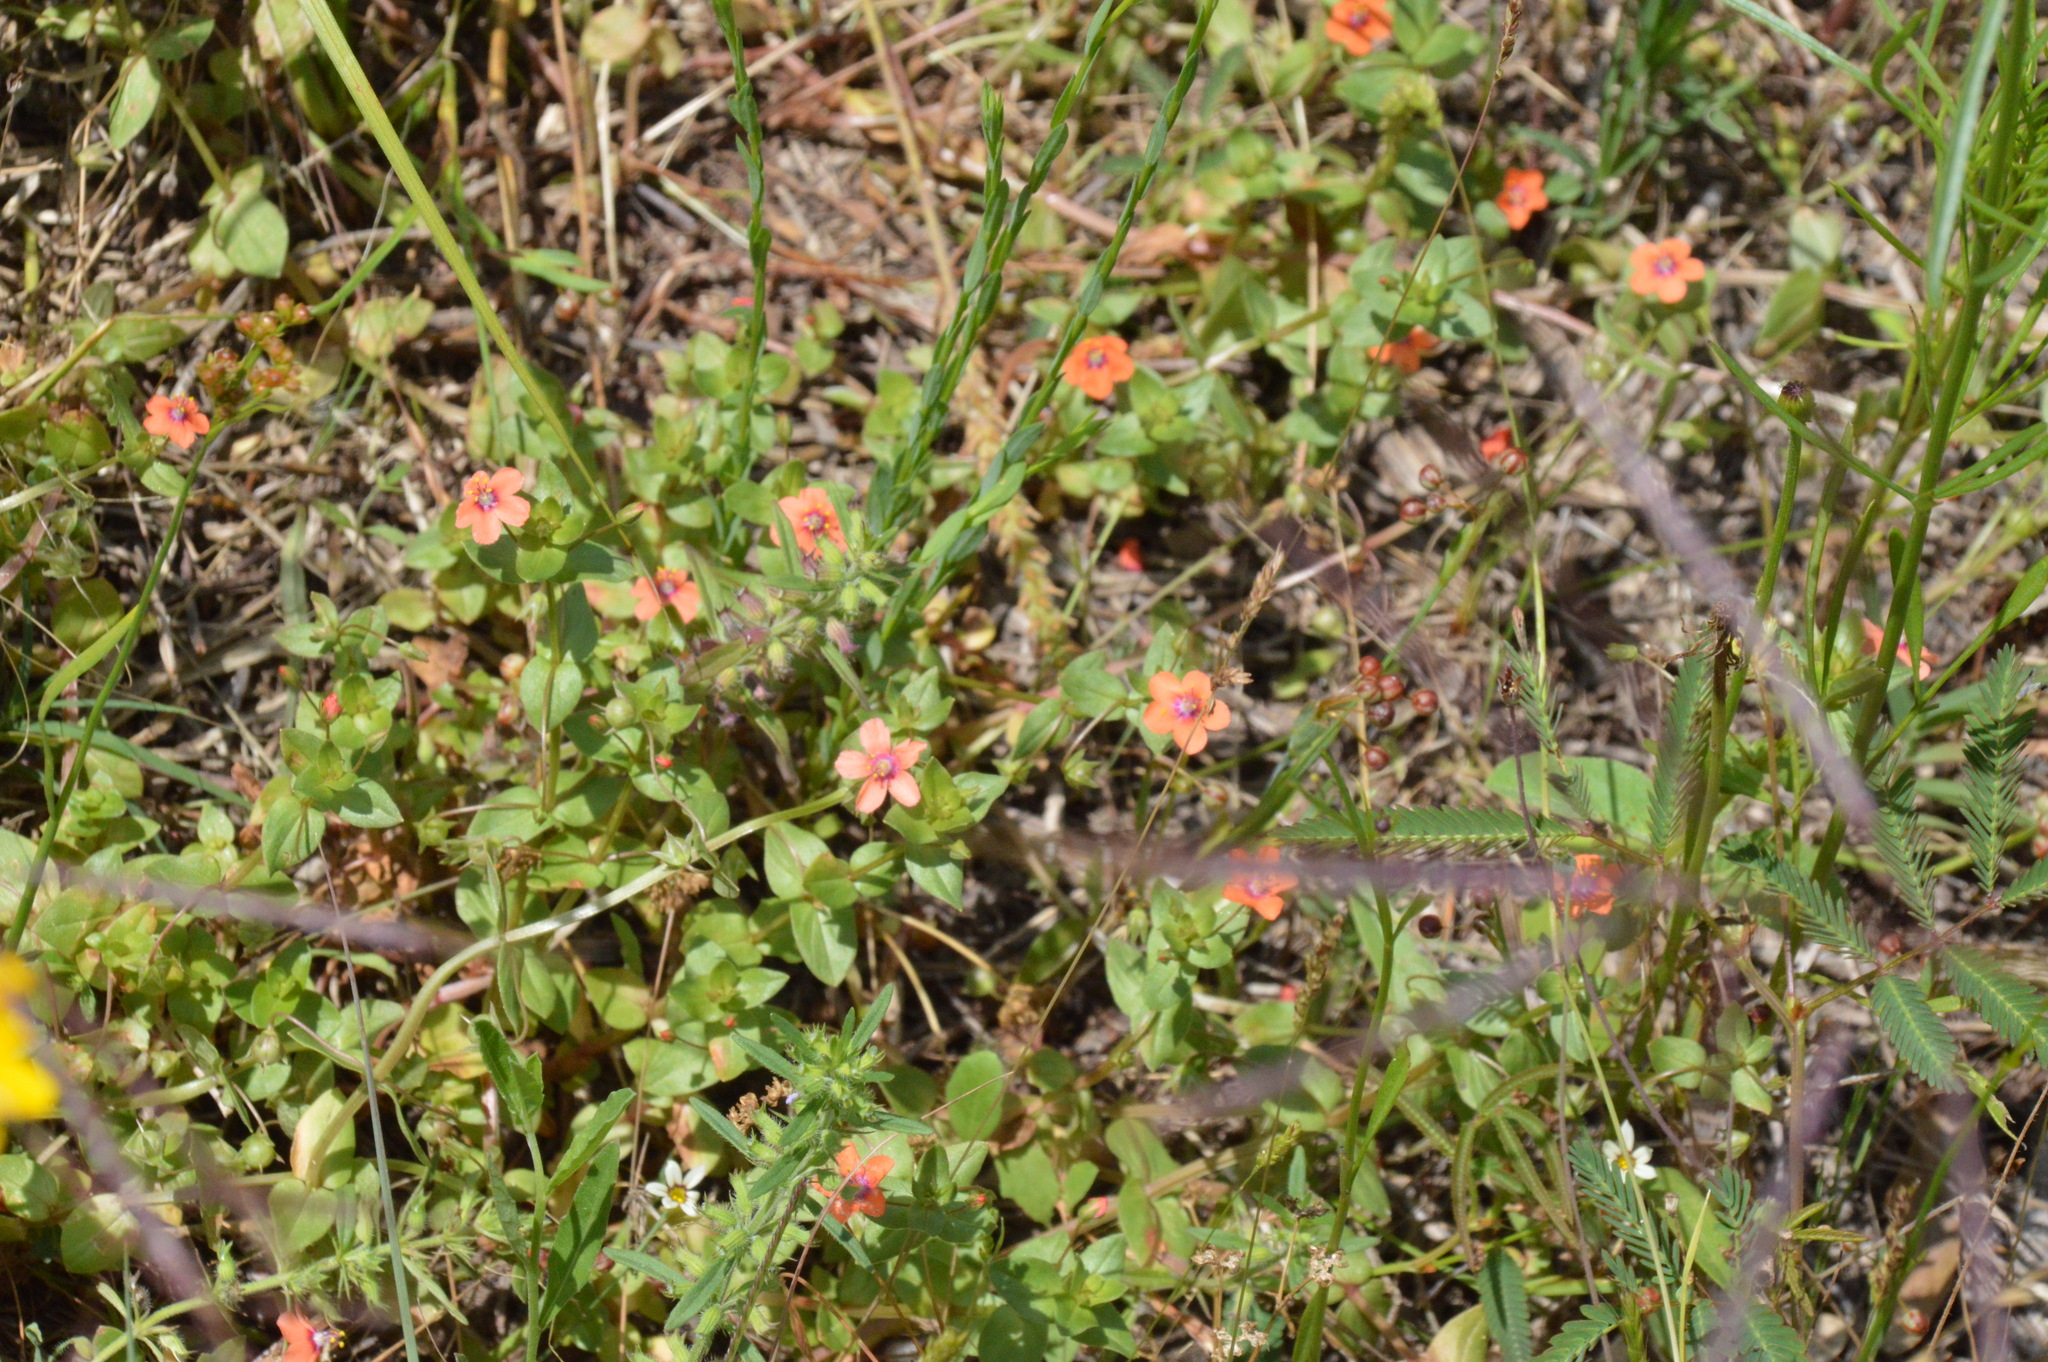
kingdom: Plantae
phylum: Tracheophyta
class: Magnoliopsida
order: Ericales
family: Primulaceae
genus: Lysimachia
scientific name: Lysimachia arvensis
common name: Scarlet pimpernel
